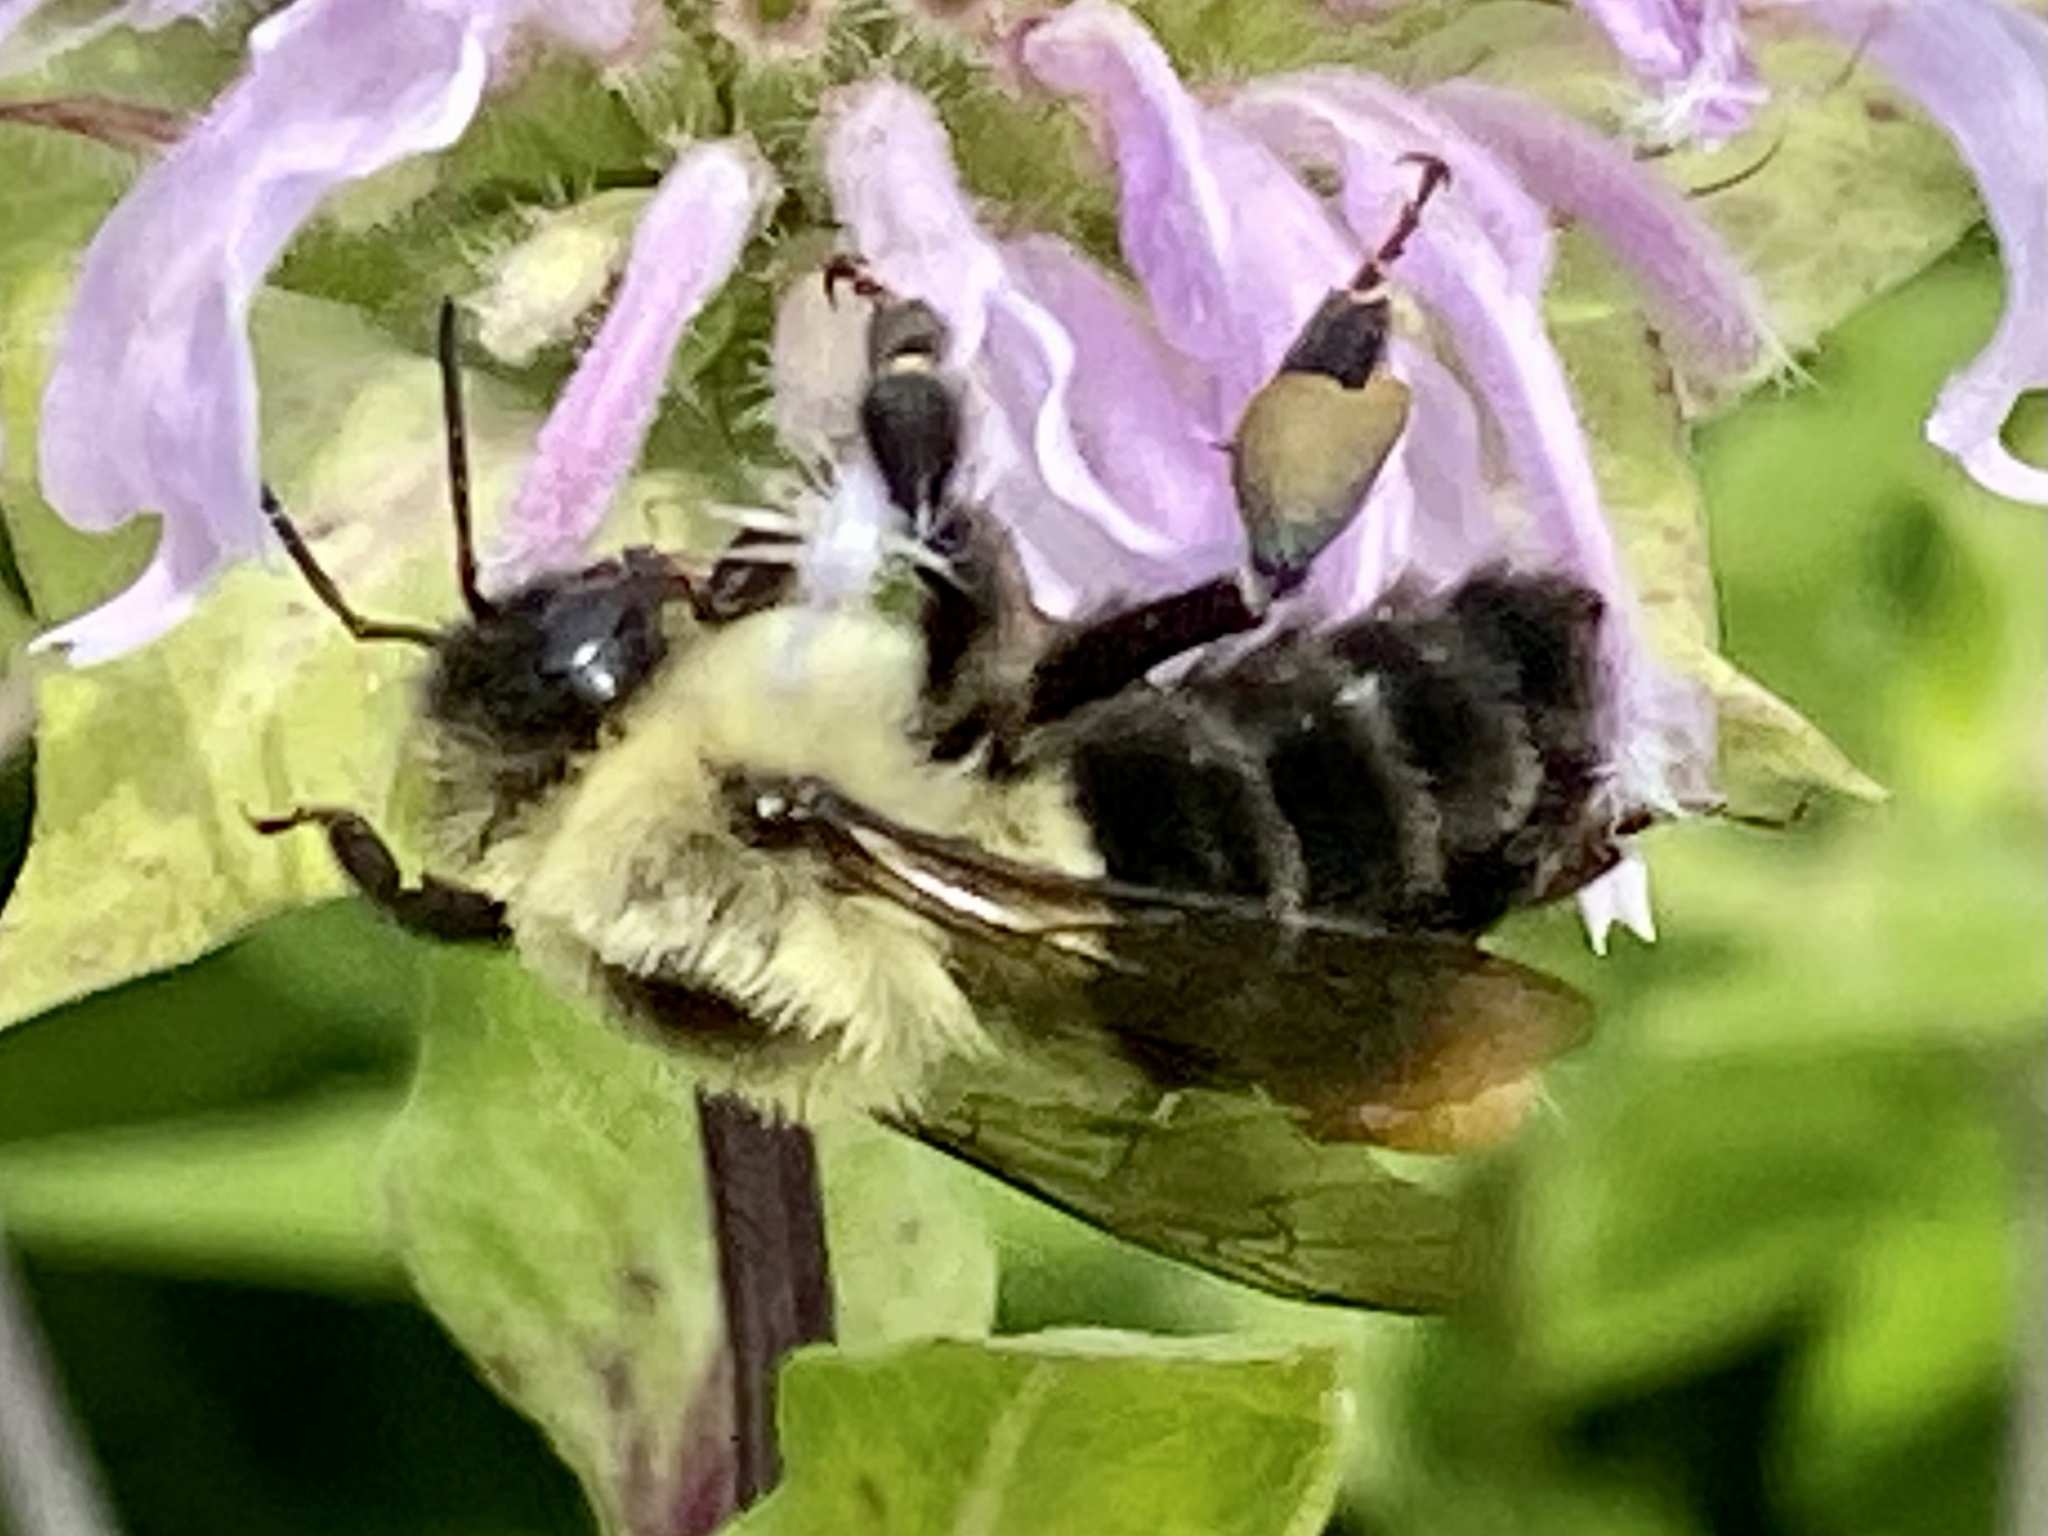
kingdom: Animalia
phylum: Arthropoda
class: Insecta
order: Hymenoptera
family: Apidae
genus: Bombus
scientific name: Bombus impatiens
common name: Common eastern bumble bee
